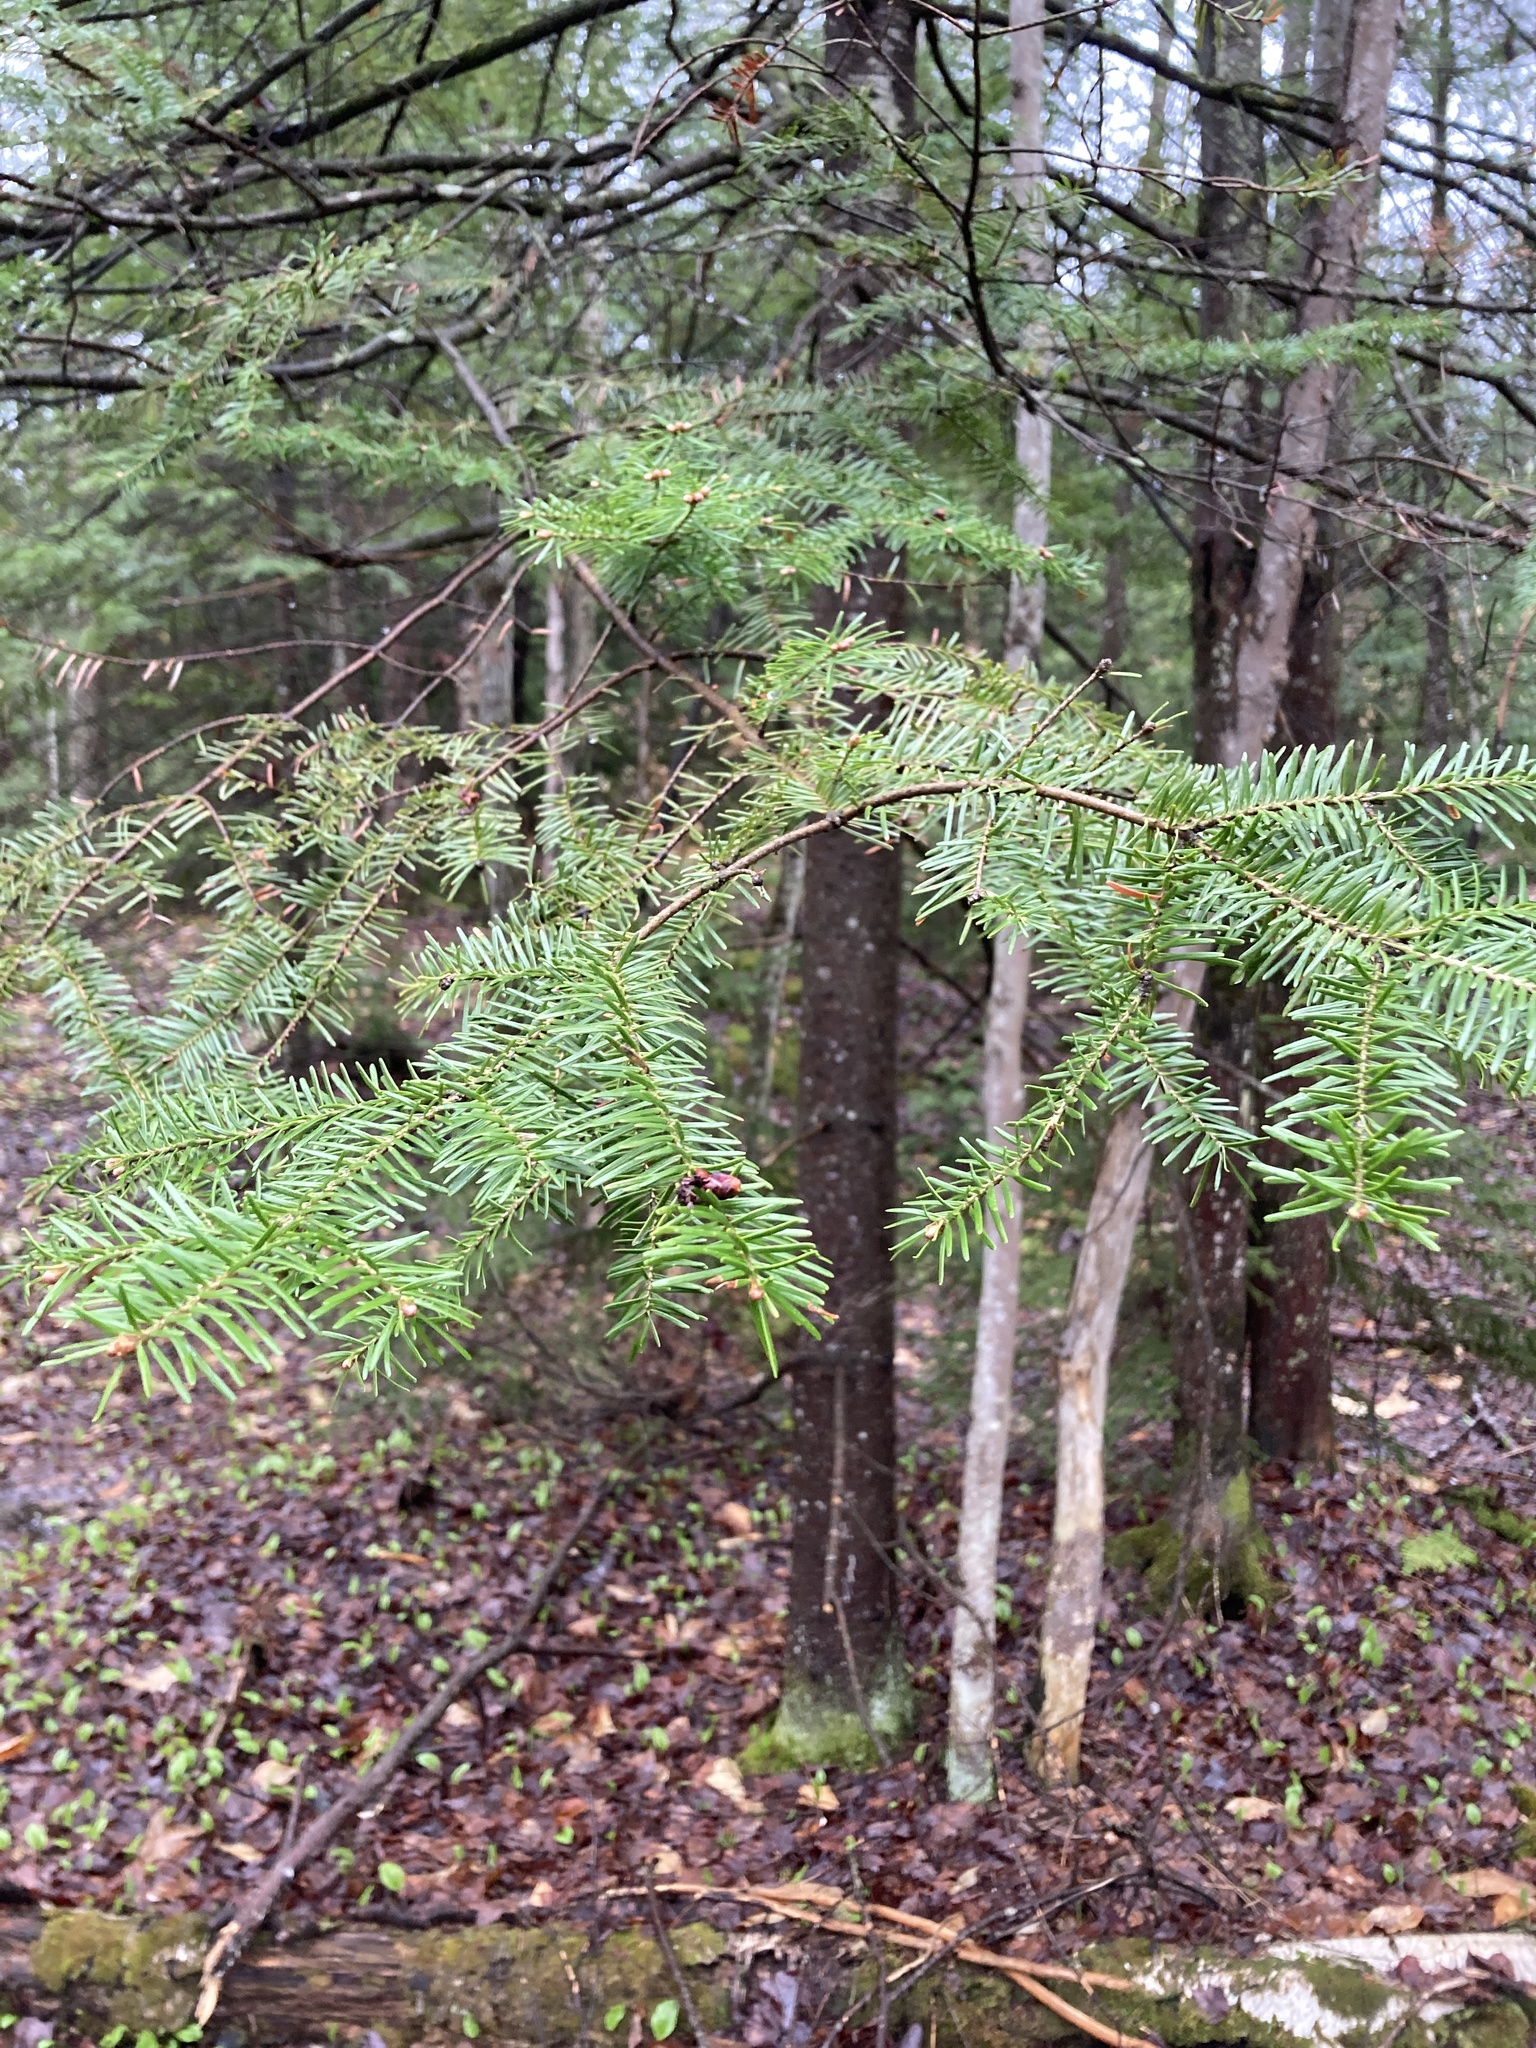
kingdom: Plantae
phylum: Tracheophyta
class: Pinopsida
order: Pinales
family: Pinaceae
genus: Abies
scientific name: Abies balsamea
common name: Balsam fir
